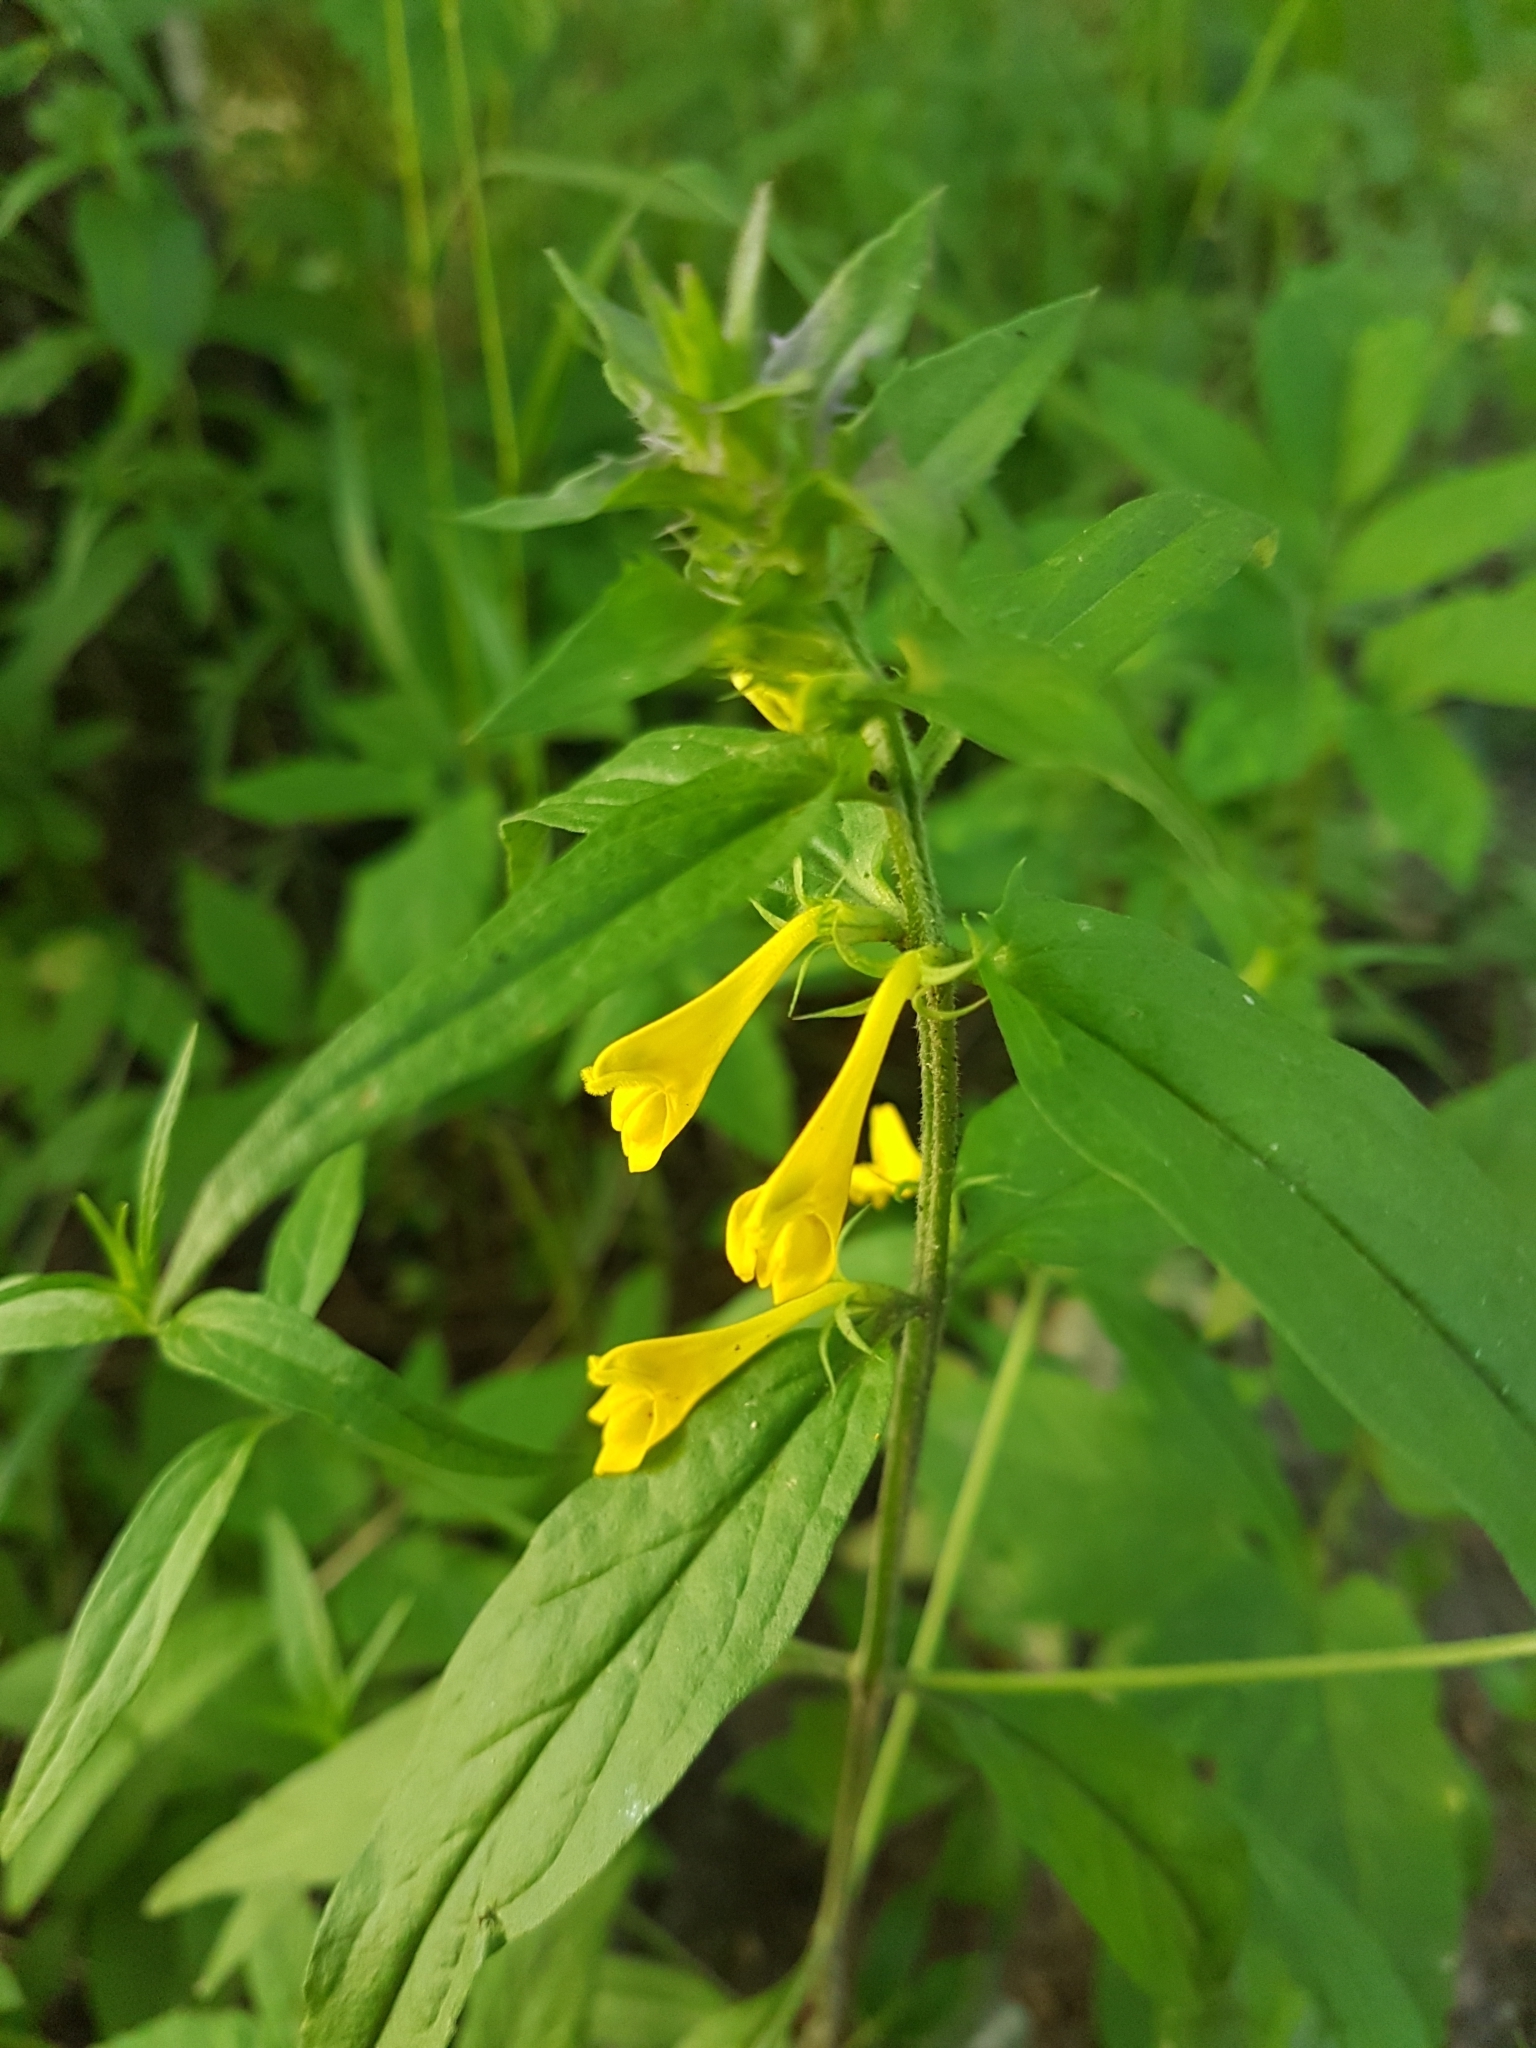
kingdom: Plantae
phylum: Tracheophyta
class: Magnoliopsida
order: Lamiales
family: Orobanchaceae
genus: Melampyrum
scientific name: Melampyrum nemorosum
